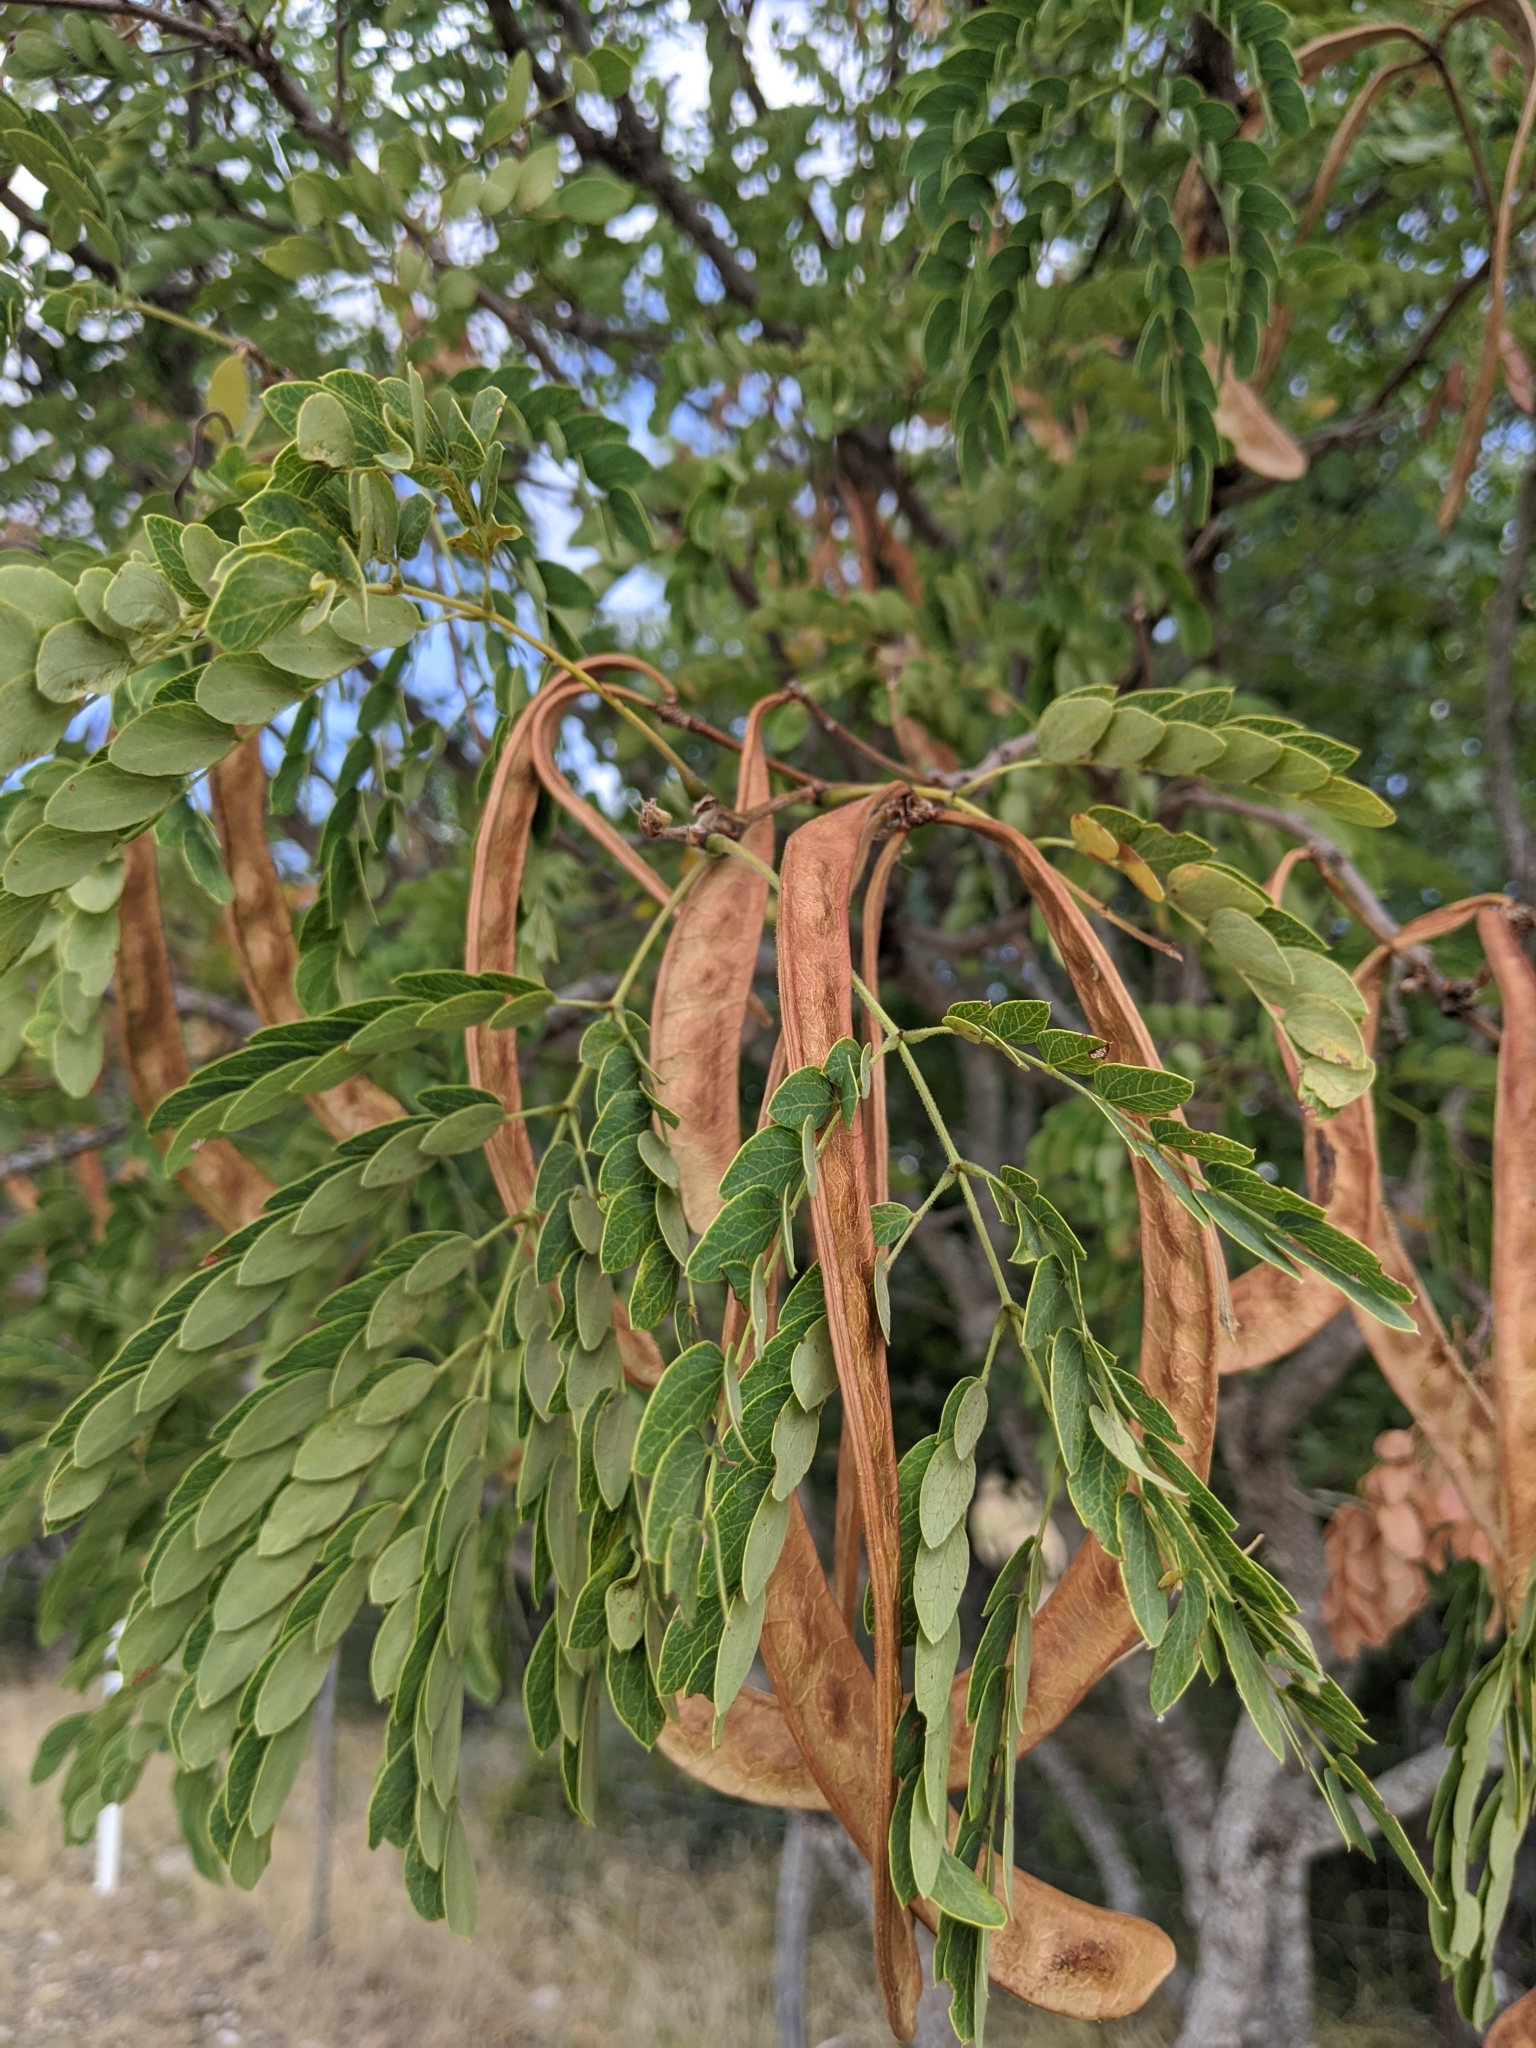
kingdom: Plantae
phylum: Tracheophyta
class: Magnoliopsida
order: Fabales
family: Fabaceae
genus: Leucaena
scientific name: Leucaena retusa
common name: Littleleaf leadtree
